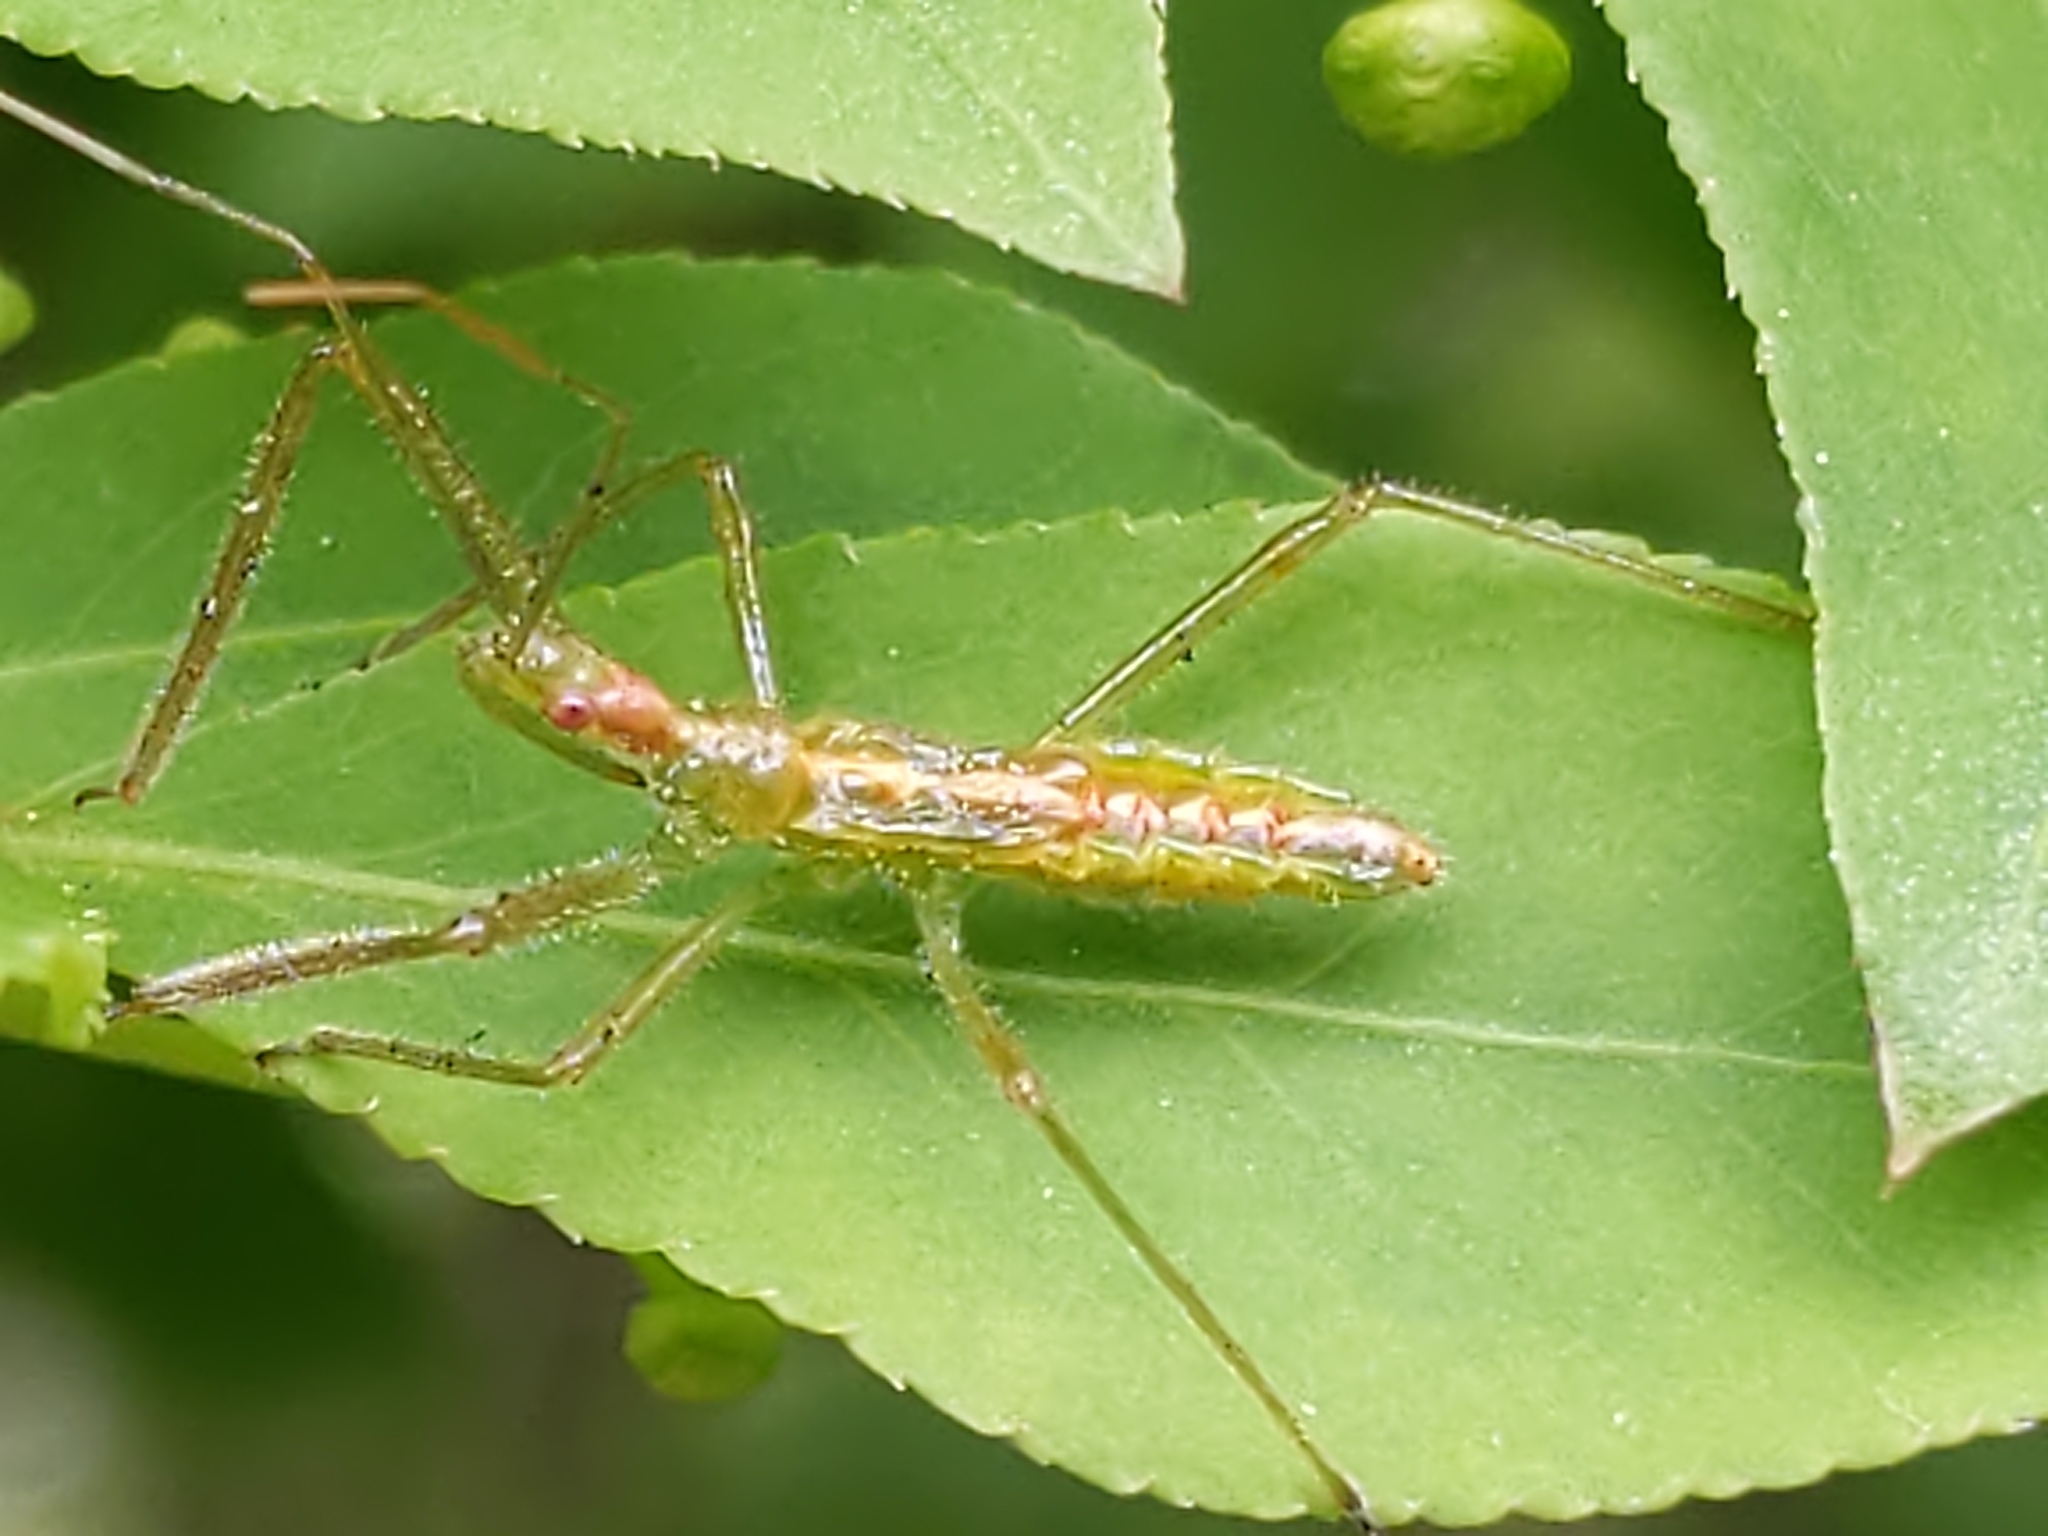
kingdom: Animalia
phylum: Arthropoda
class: Insecta
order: Hemiptera
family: Reduviidae
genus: Zelus
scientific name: Zelus luridus
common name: Pale green assassin bug
